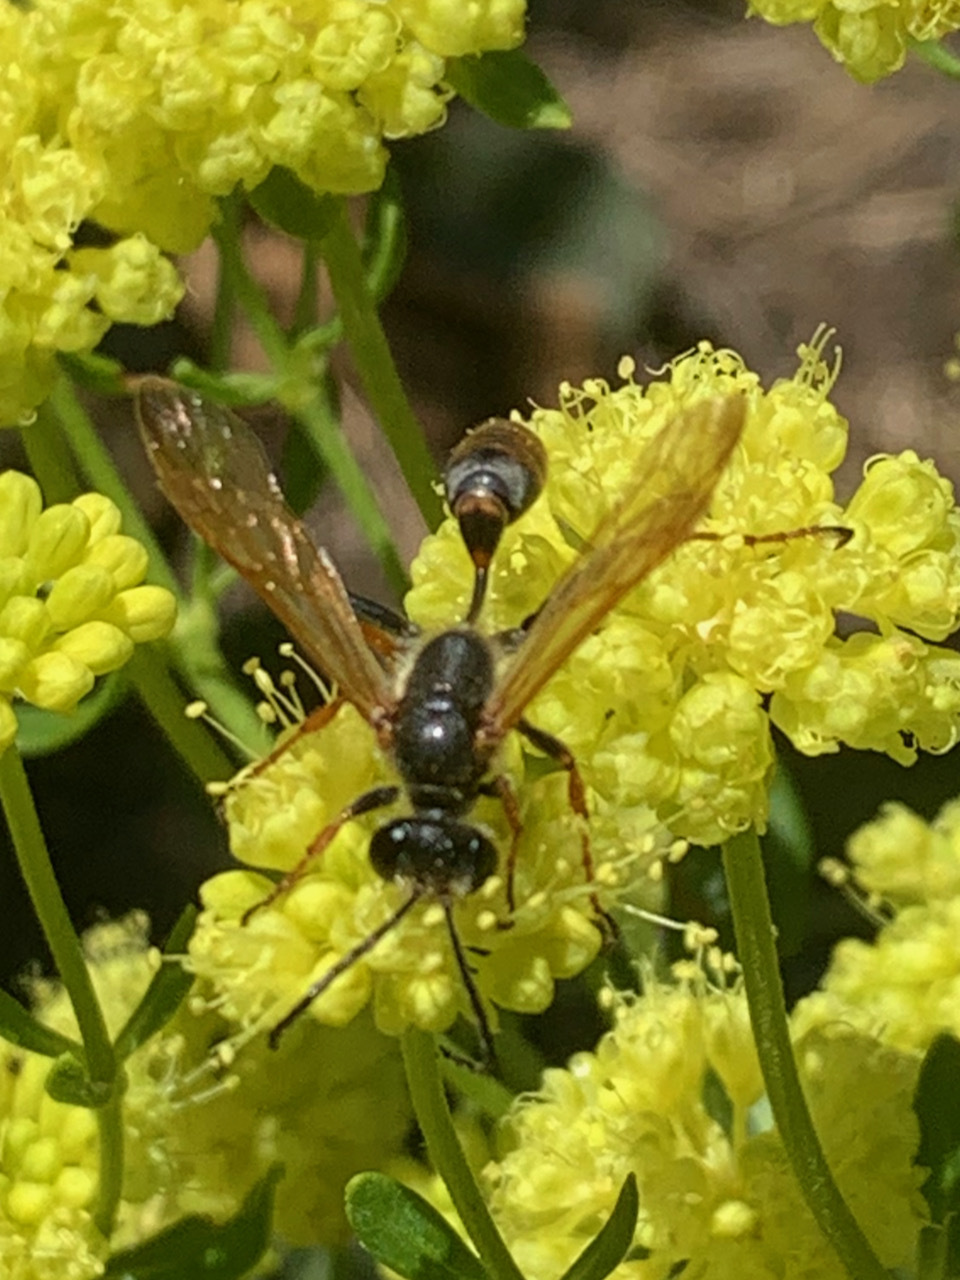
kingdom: Animalia
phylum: Arthropoda
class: Insecta
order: Hymenoptera
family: Sphecidae
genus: Isodontia
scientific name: Isodontia elegans
